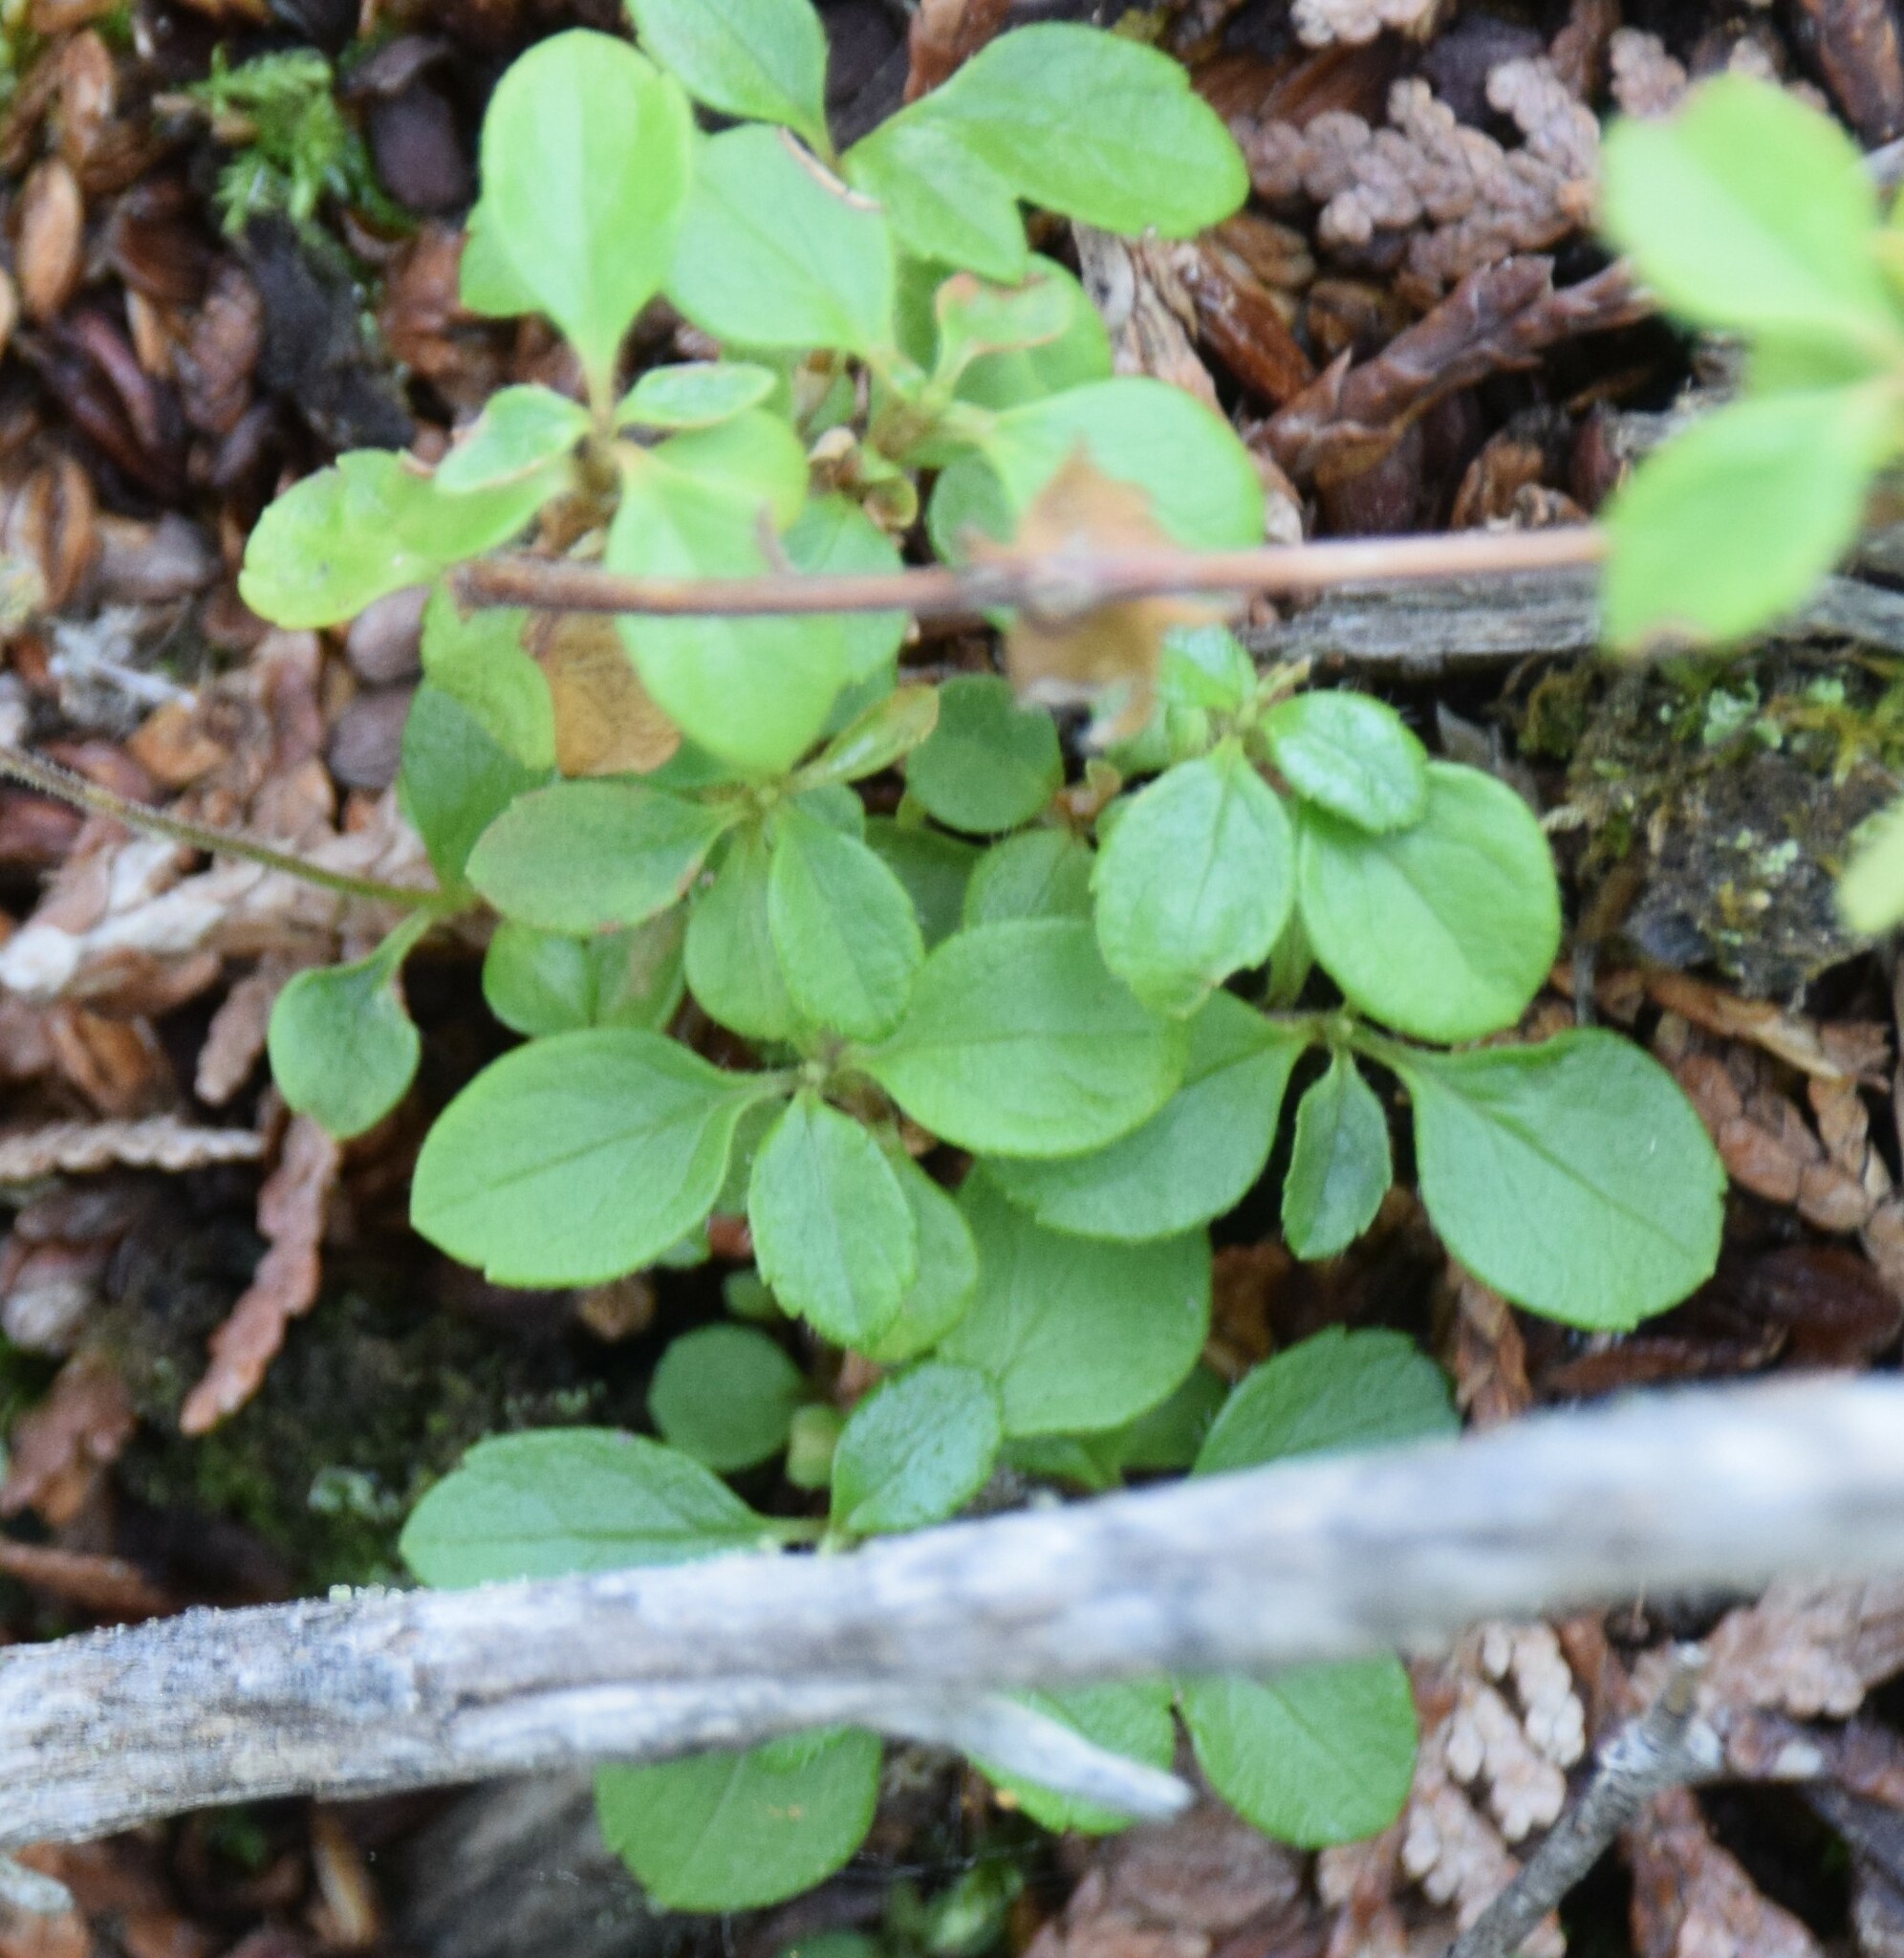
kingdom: Plantae
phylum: Tracheophyta
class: Magnoliopsida
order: Dipsacales
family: Caprifoliaceae
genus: Linnaea
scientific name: Linnaea borealis
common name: Twinflower
